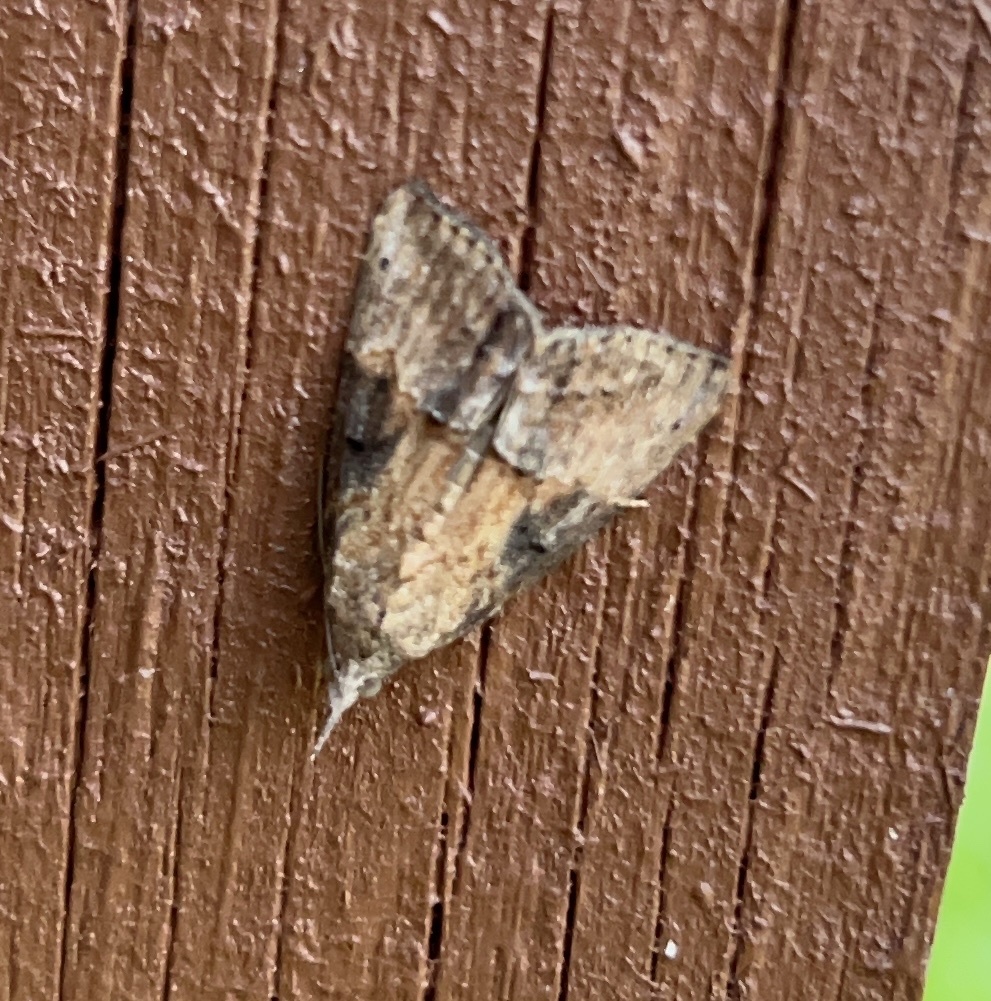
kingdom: Animalia
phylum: Arthropoda
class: Insecta
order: Lepidoptera
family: Erebidae
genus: Hypena
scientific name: Hypena scabra
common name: Green cloverworm
